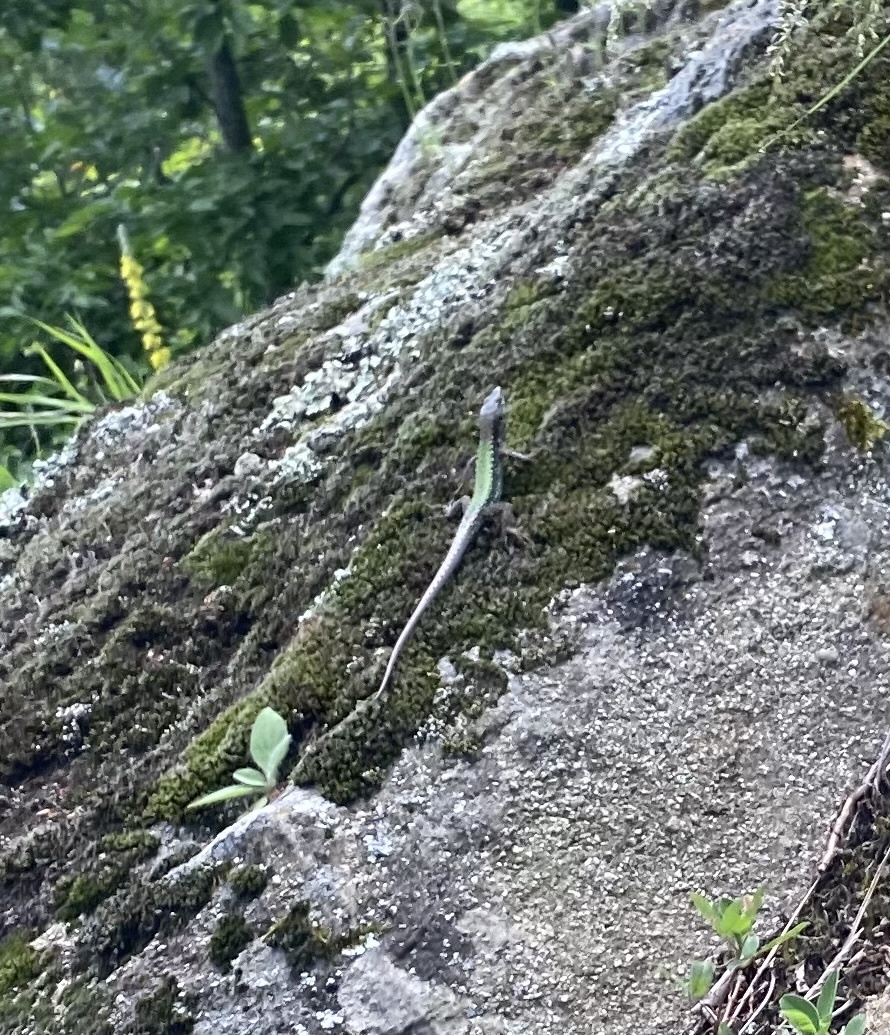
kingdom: Animalia
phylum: Chordata
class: Squamata
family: Lacertidae
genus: Darevskia
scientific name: Darevskia brauneri
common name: Brauner's rock lizard
